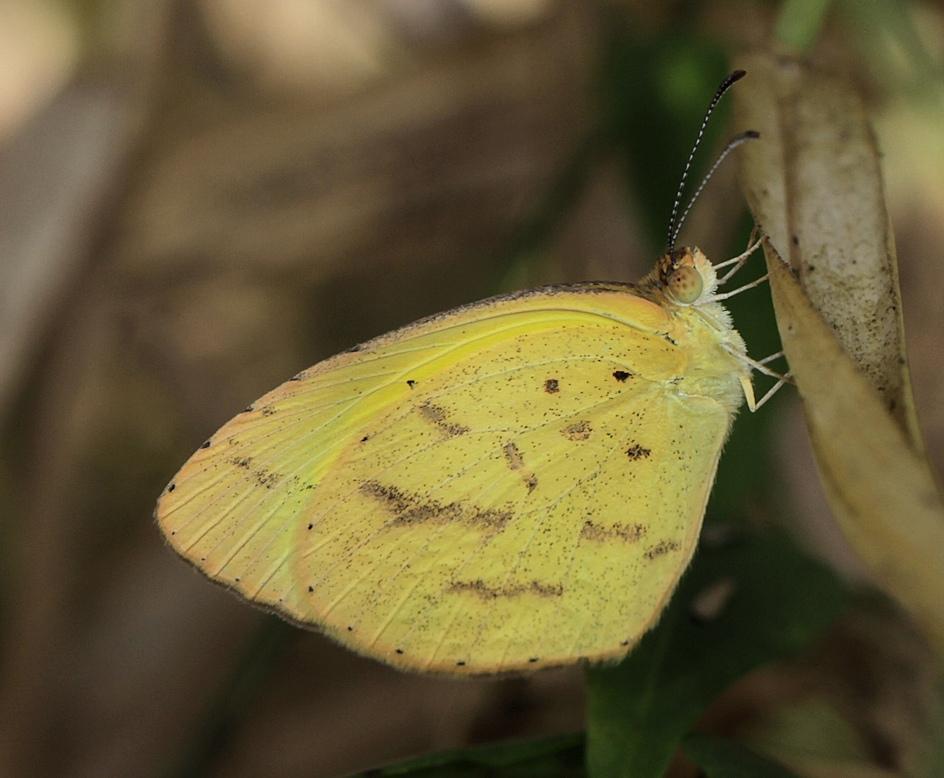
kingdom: Animalia
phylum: Arthropoda
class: Insecta
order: Lepidoptera
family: Pieridae
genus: Eurema
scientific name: Eurema brigitta
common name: Small grass yellow
